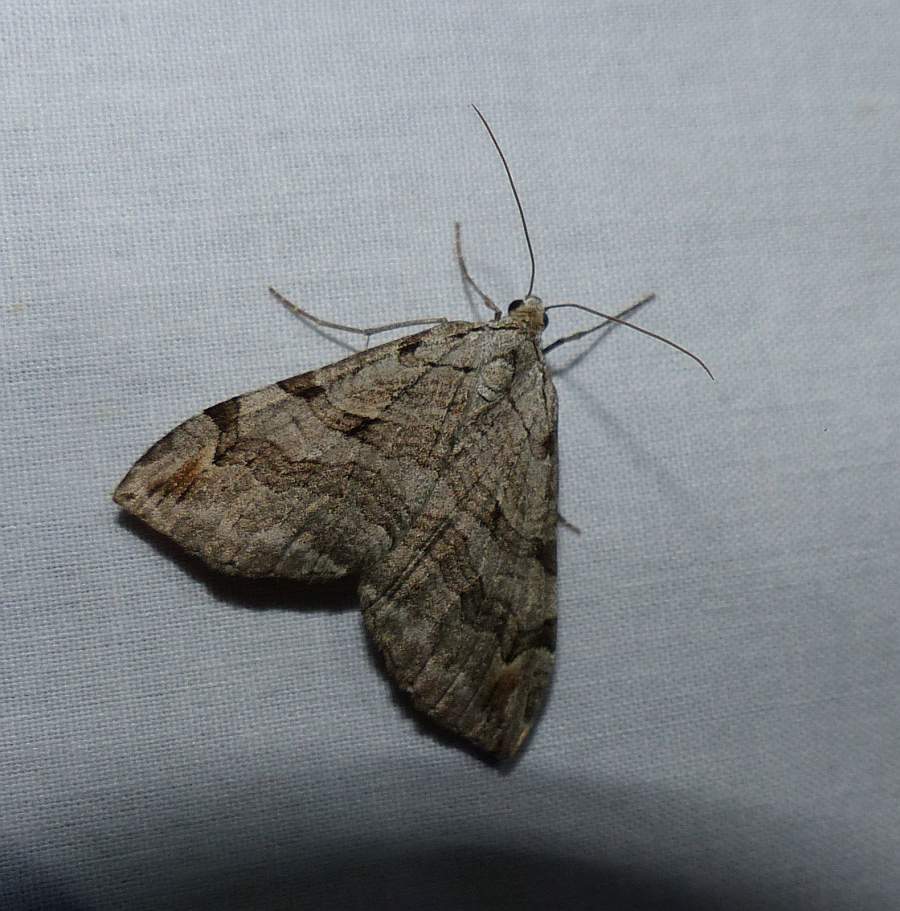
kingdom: Animalia
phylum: Arthropoda
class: Insecta
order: Lepidoptera
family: Geometridae
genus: Aplocera
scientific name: Aplocera plagiata
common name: Treble-bar
